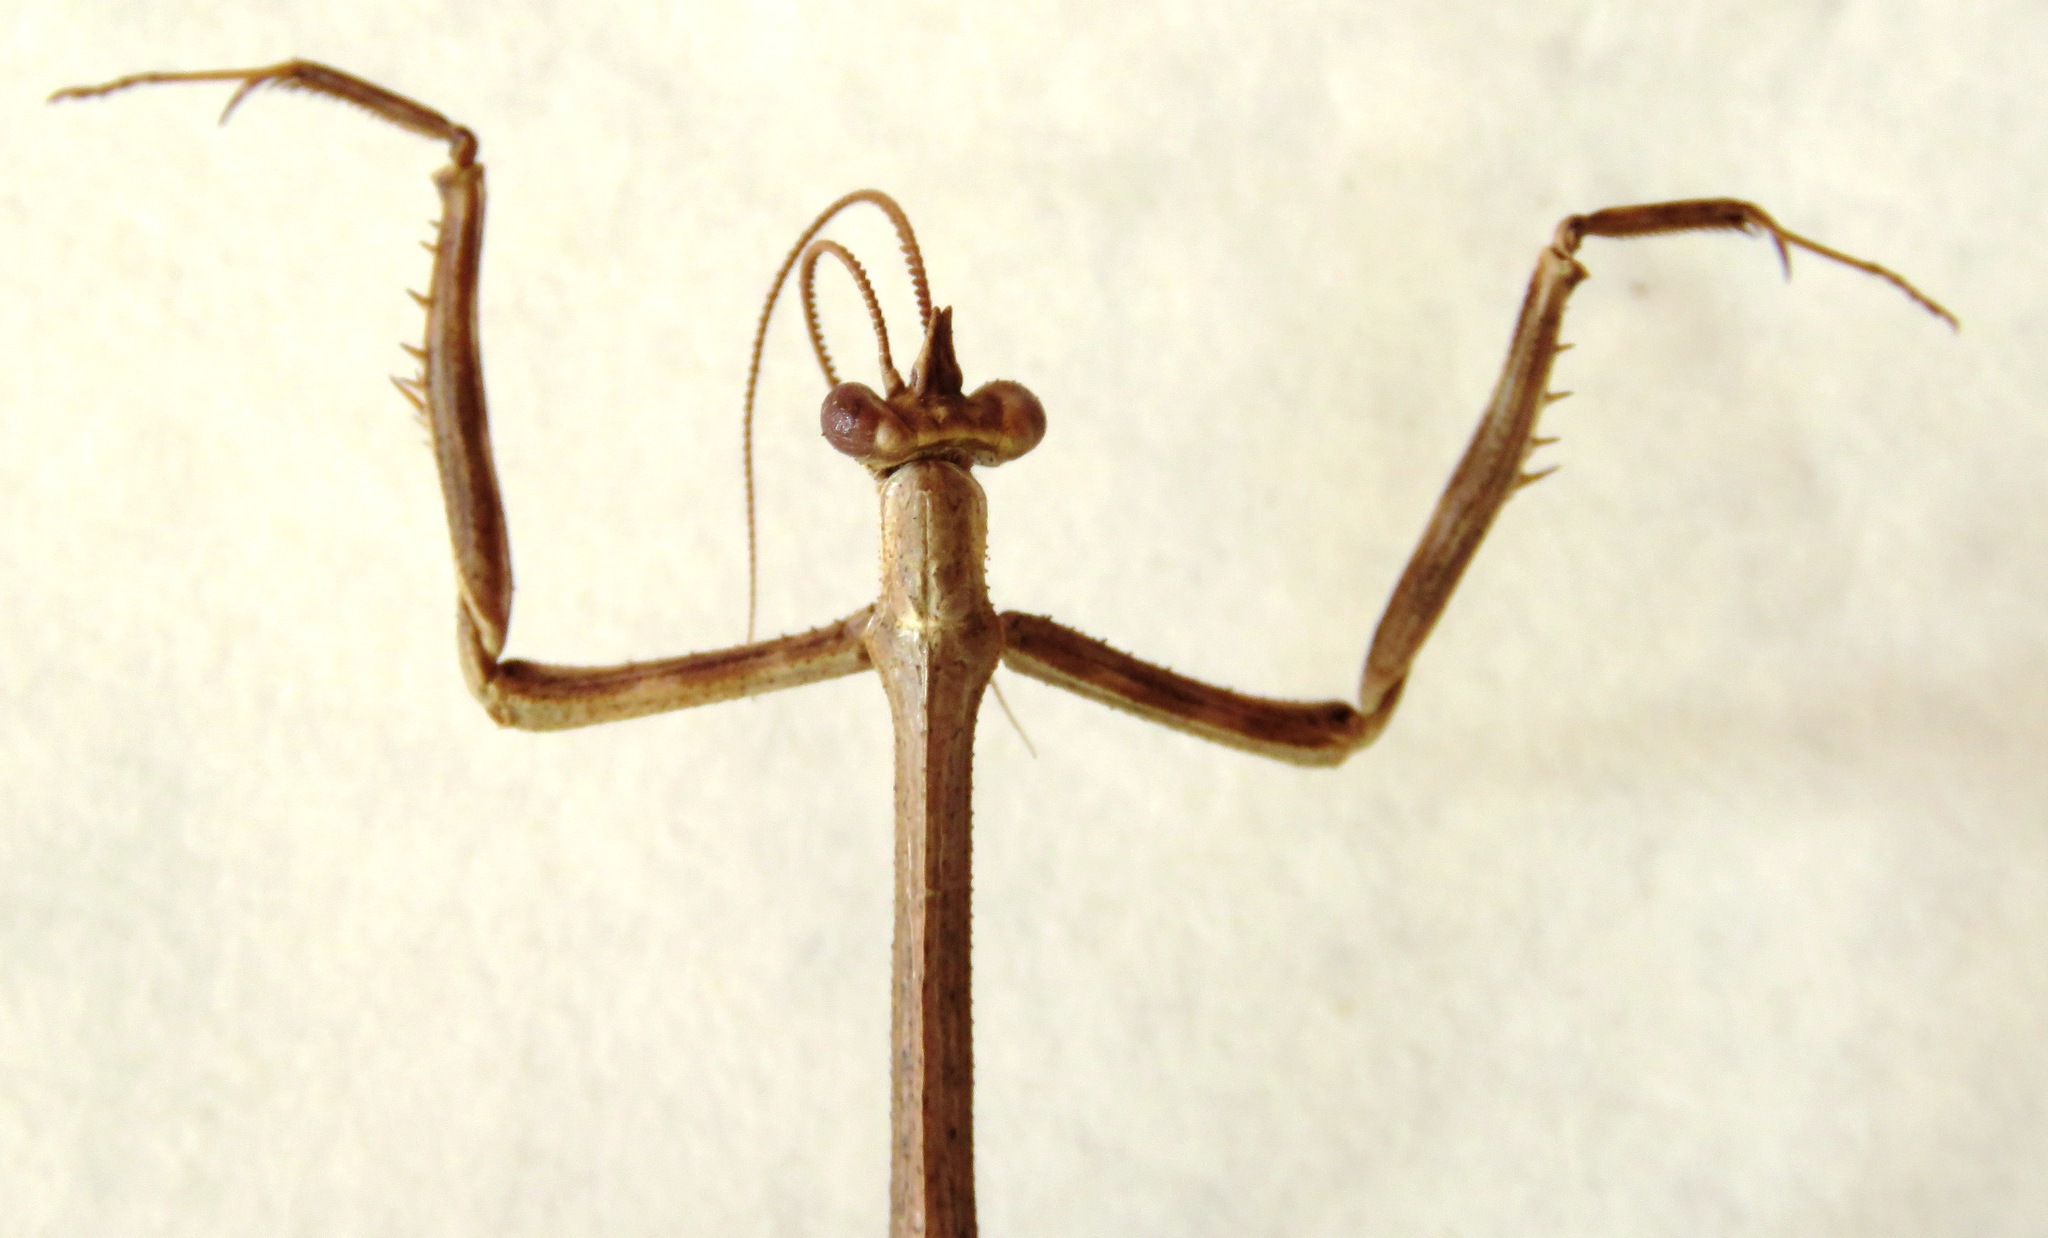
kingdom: Animalia
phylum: Arthropoda
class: Insecta
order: Mantodea
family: Mantidae
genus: Pseudovates
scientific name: Pseudovates chlorophaea
